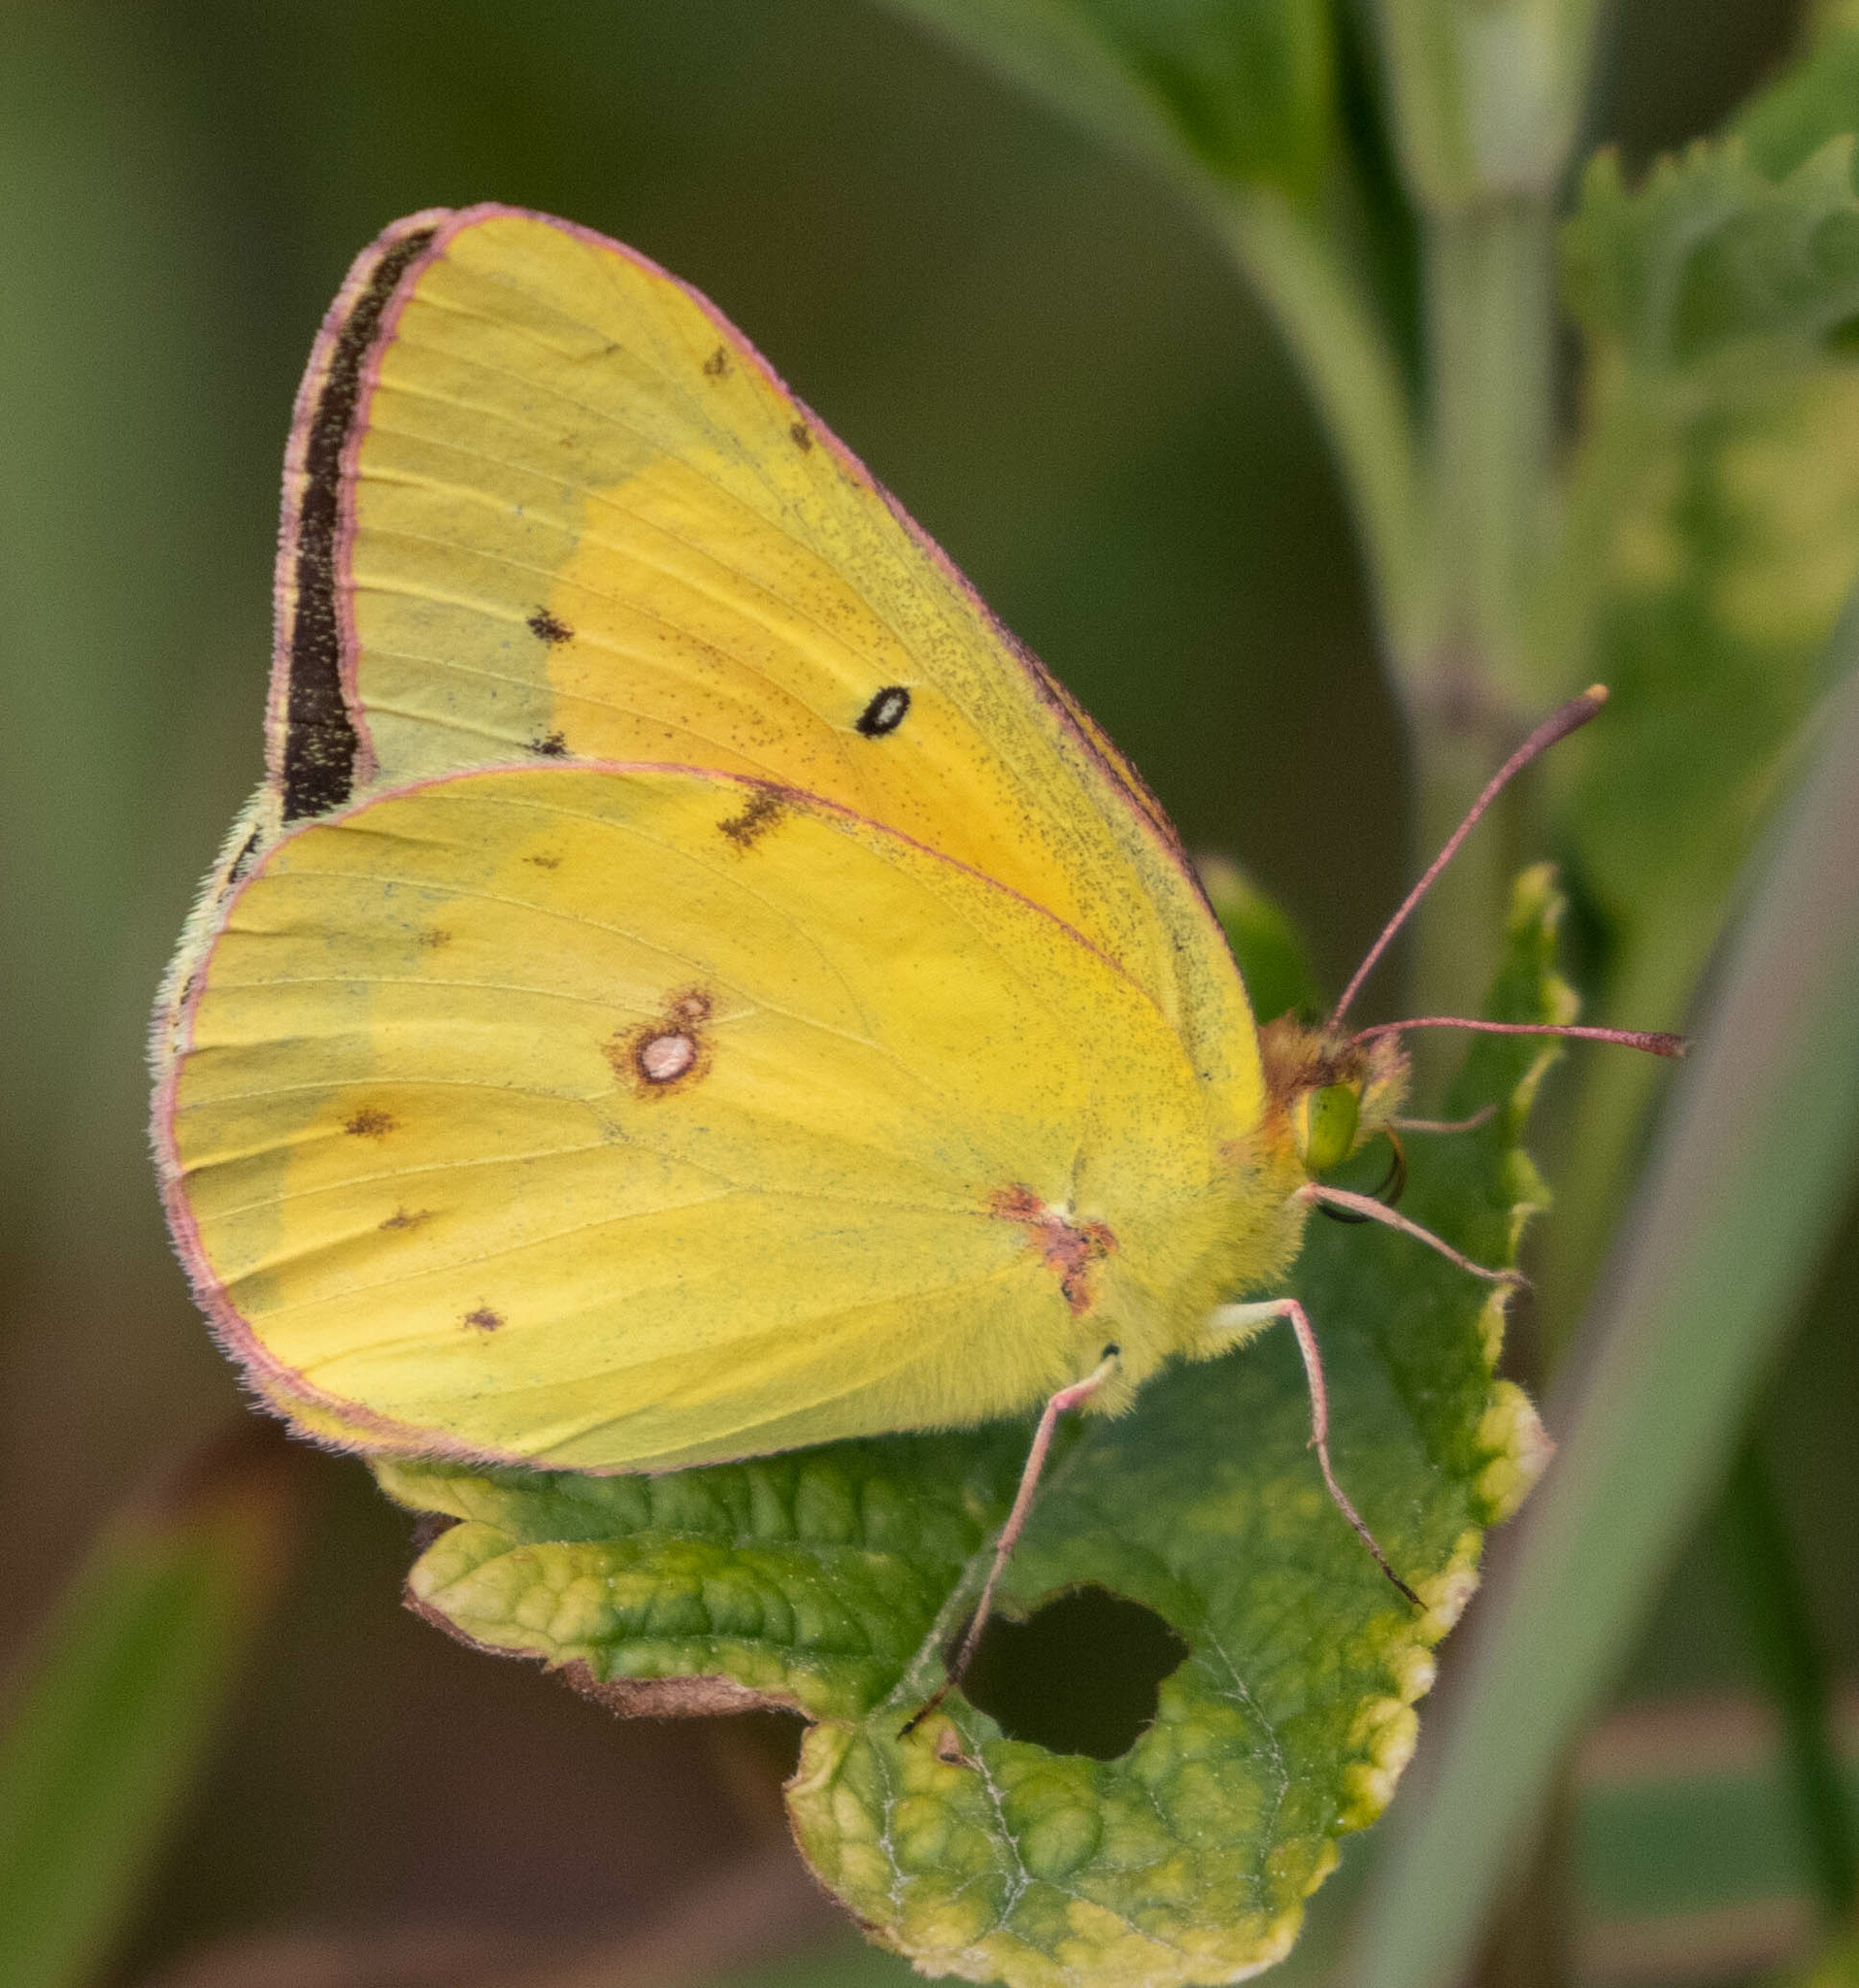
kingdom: Animalia
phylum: Arthropoda
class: Insecta
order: Lepidoptera
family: Pieridae
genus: Colias
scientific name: Colias eurytheme
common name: Alfalfa butterfly
